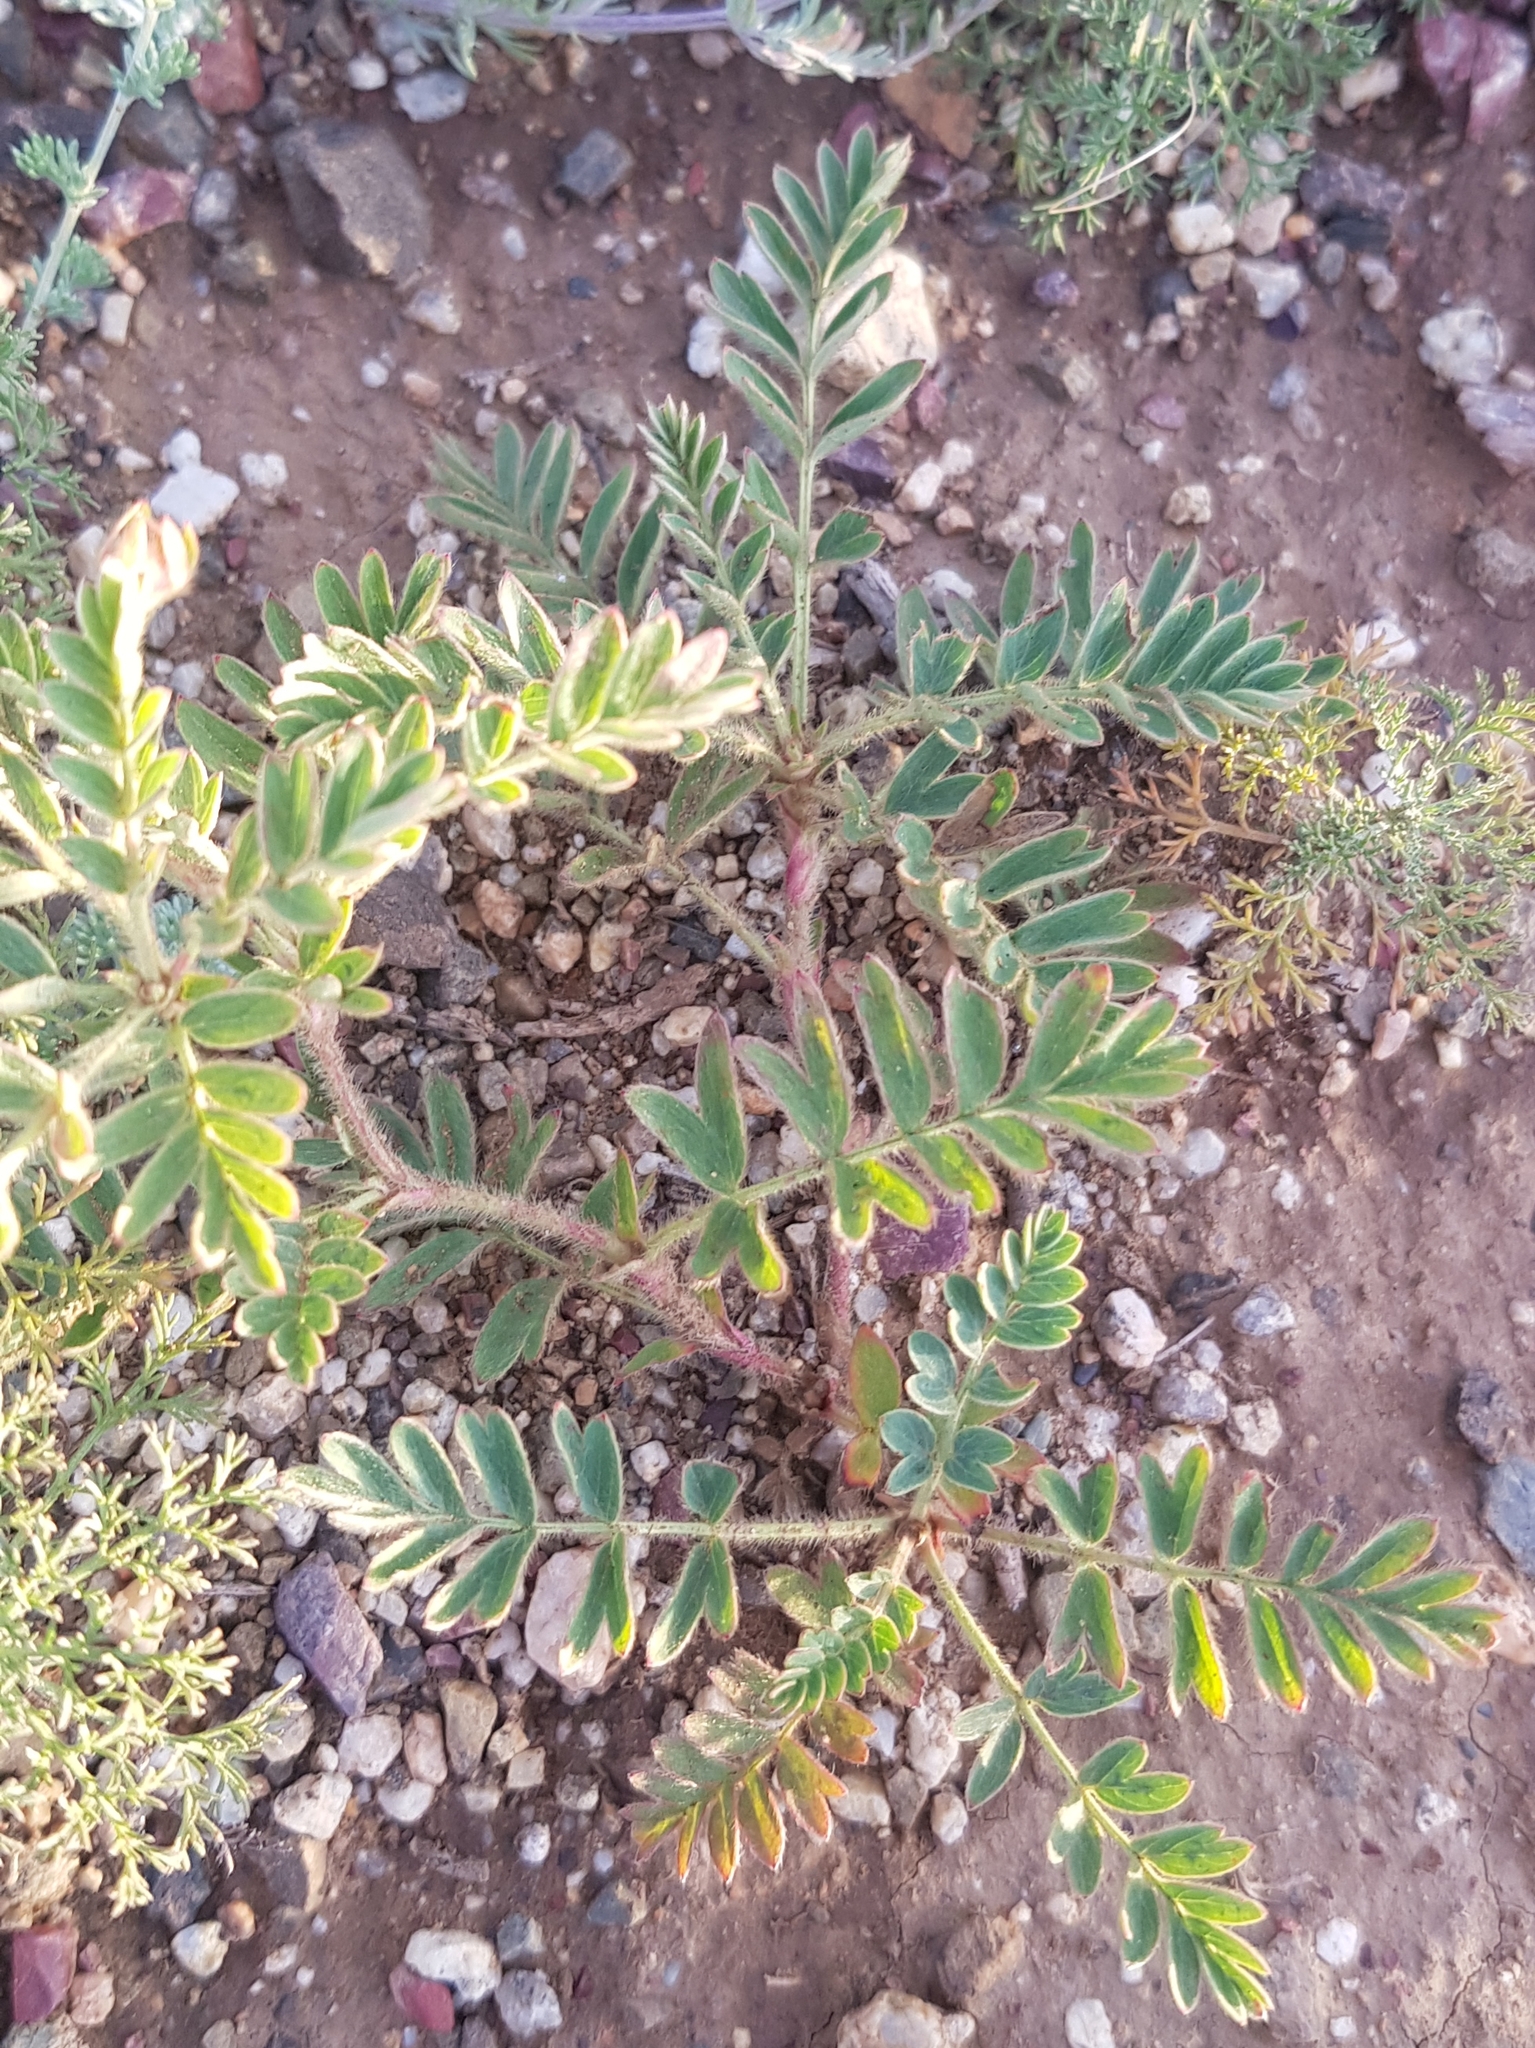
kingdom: Plantae
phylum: Tracheophyta
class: Magnoliopsida
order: Rosales
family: Rosaceae
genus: Sibbaldianthe
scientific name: Sibbaldianthe bifurca
